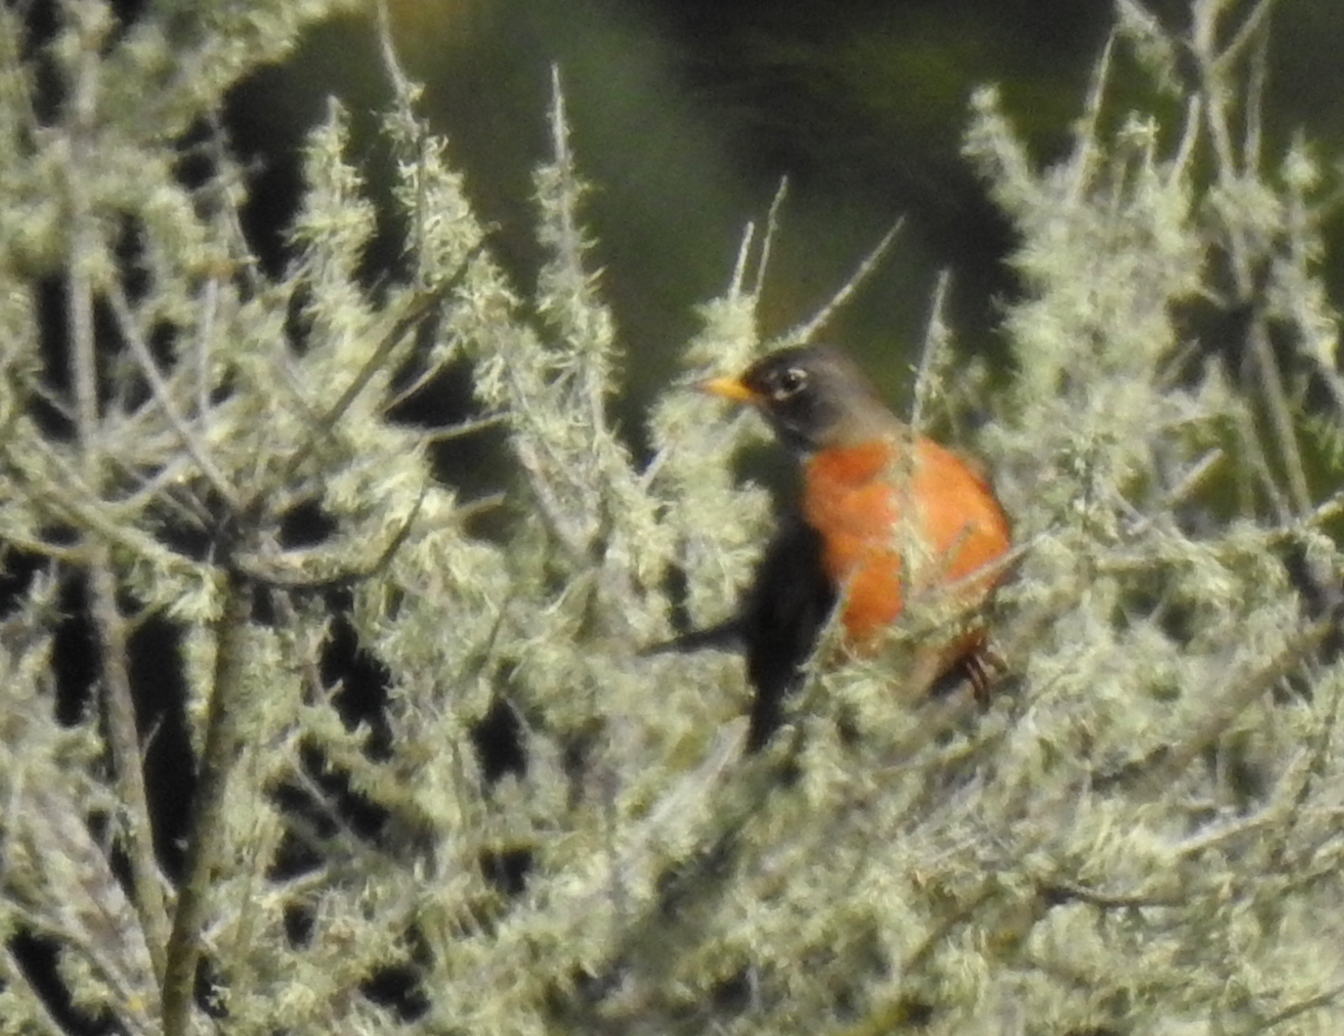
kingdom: Animalia
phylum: Chordata
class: Aves
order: Passeriformes
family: Turdidae
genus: Turdus
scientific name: Turdus migratorius
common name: American robin
